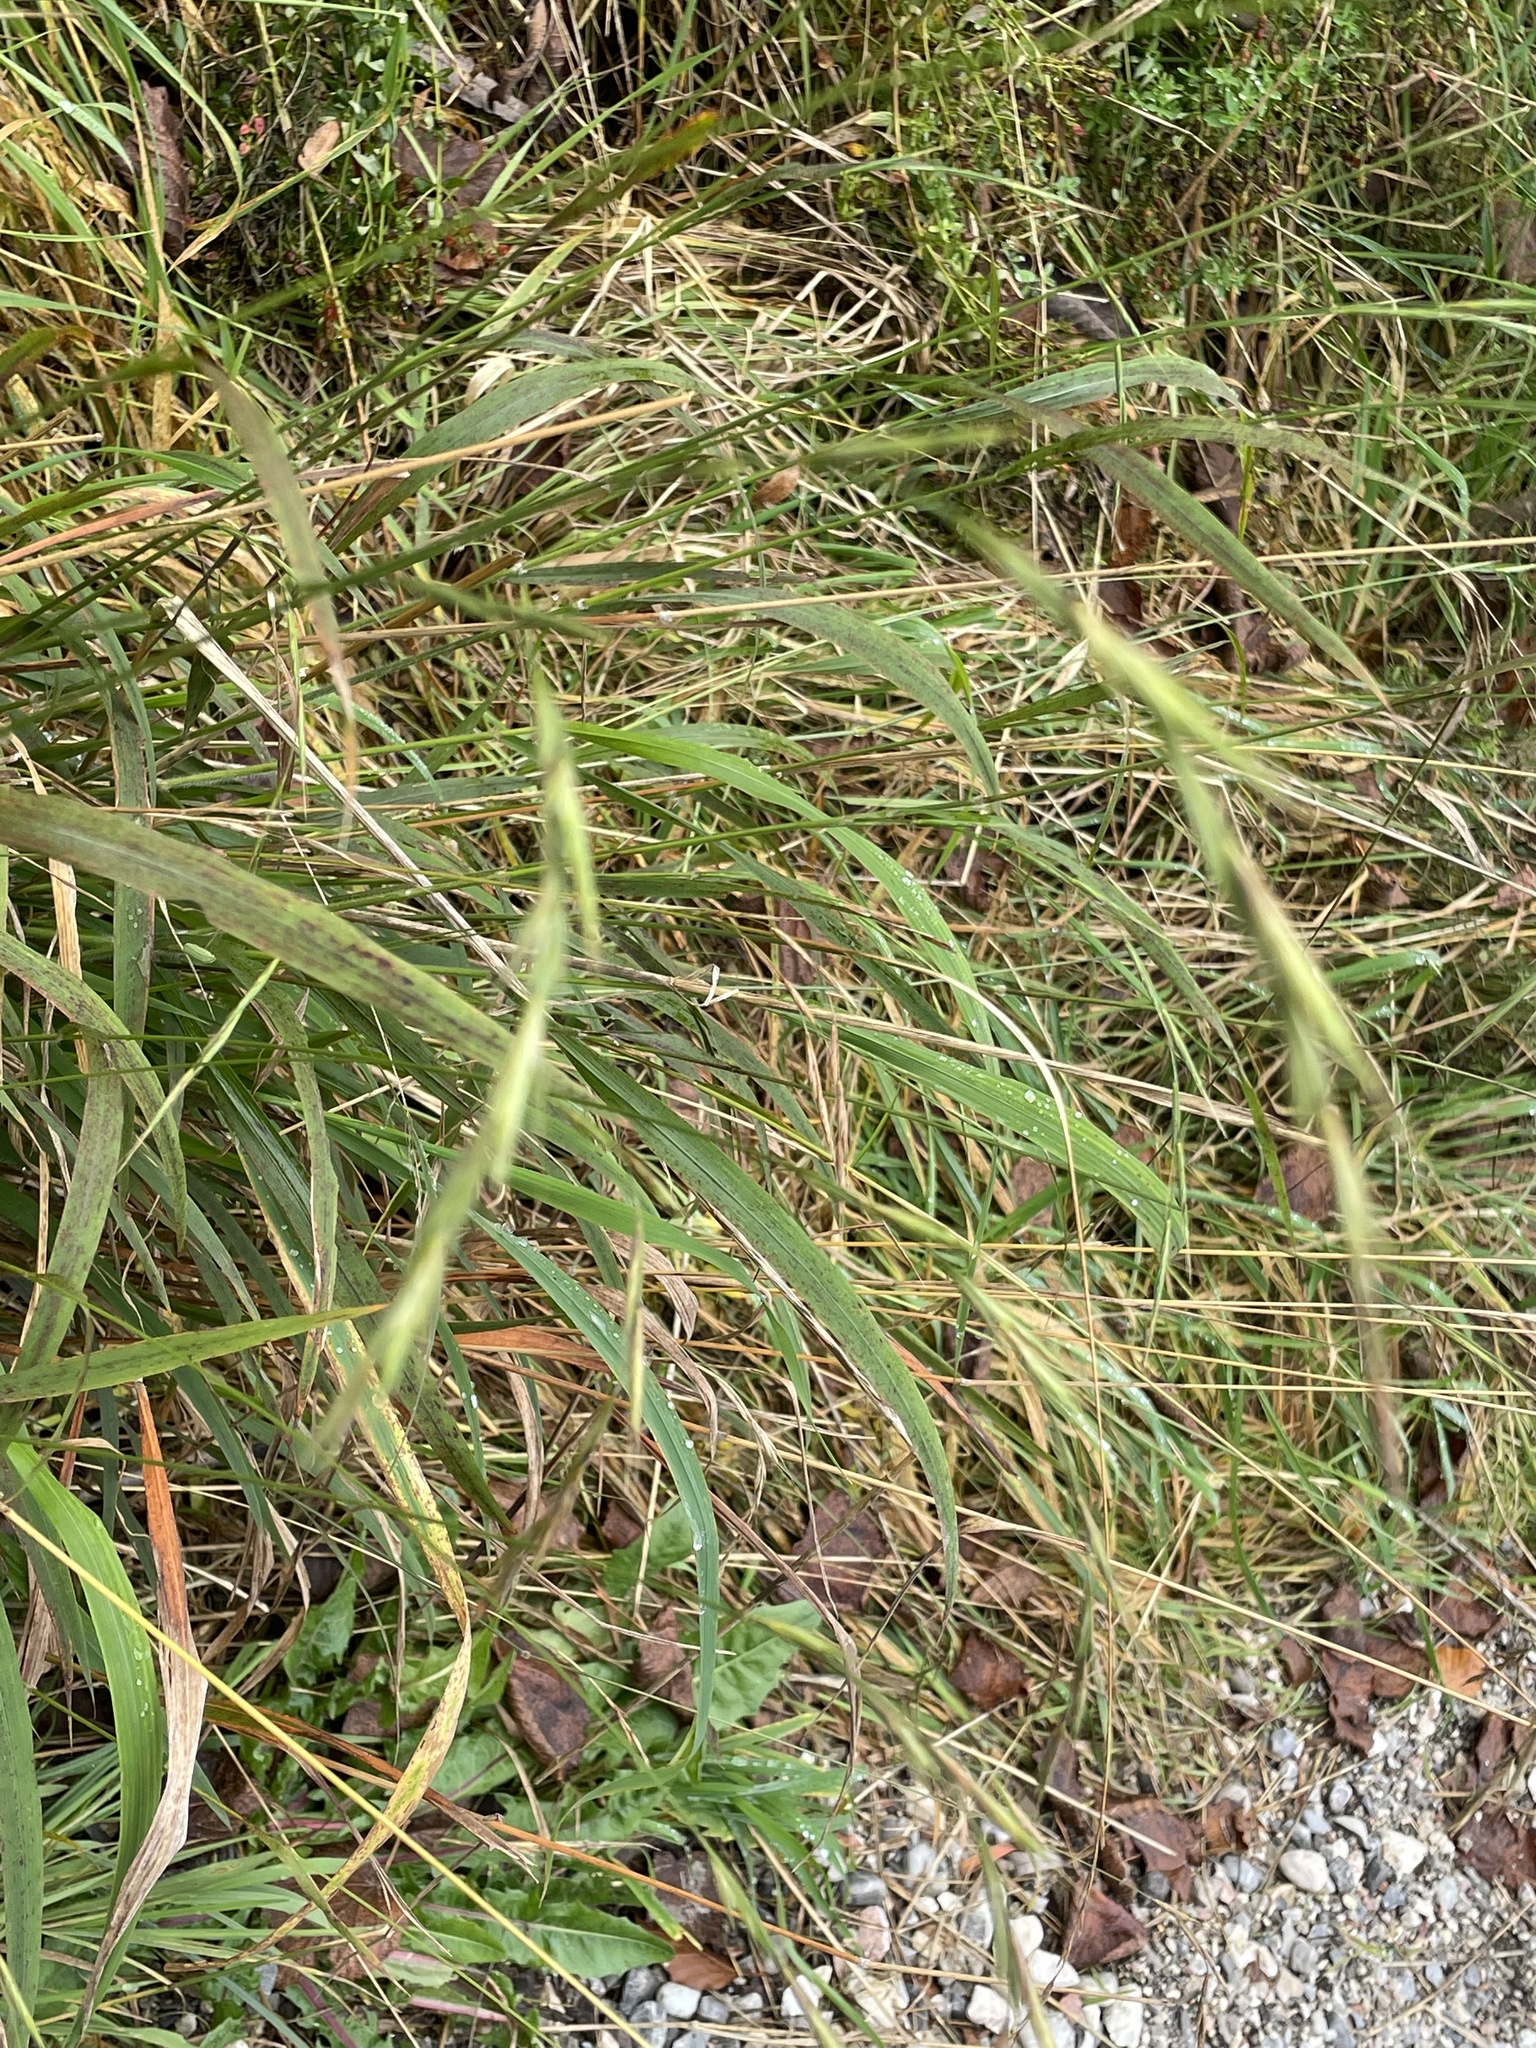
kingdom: Plantae
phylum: Tracheophyta
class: Liliopsida
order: Poales
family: Poaceae
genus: Brachypodium
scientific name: Brachypodium sylvaticum
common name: False-brome
